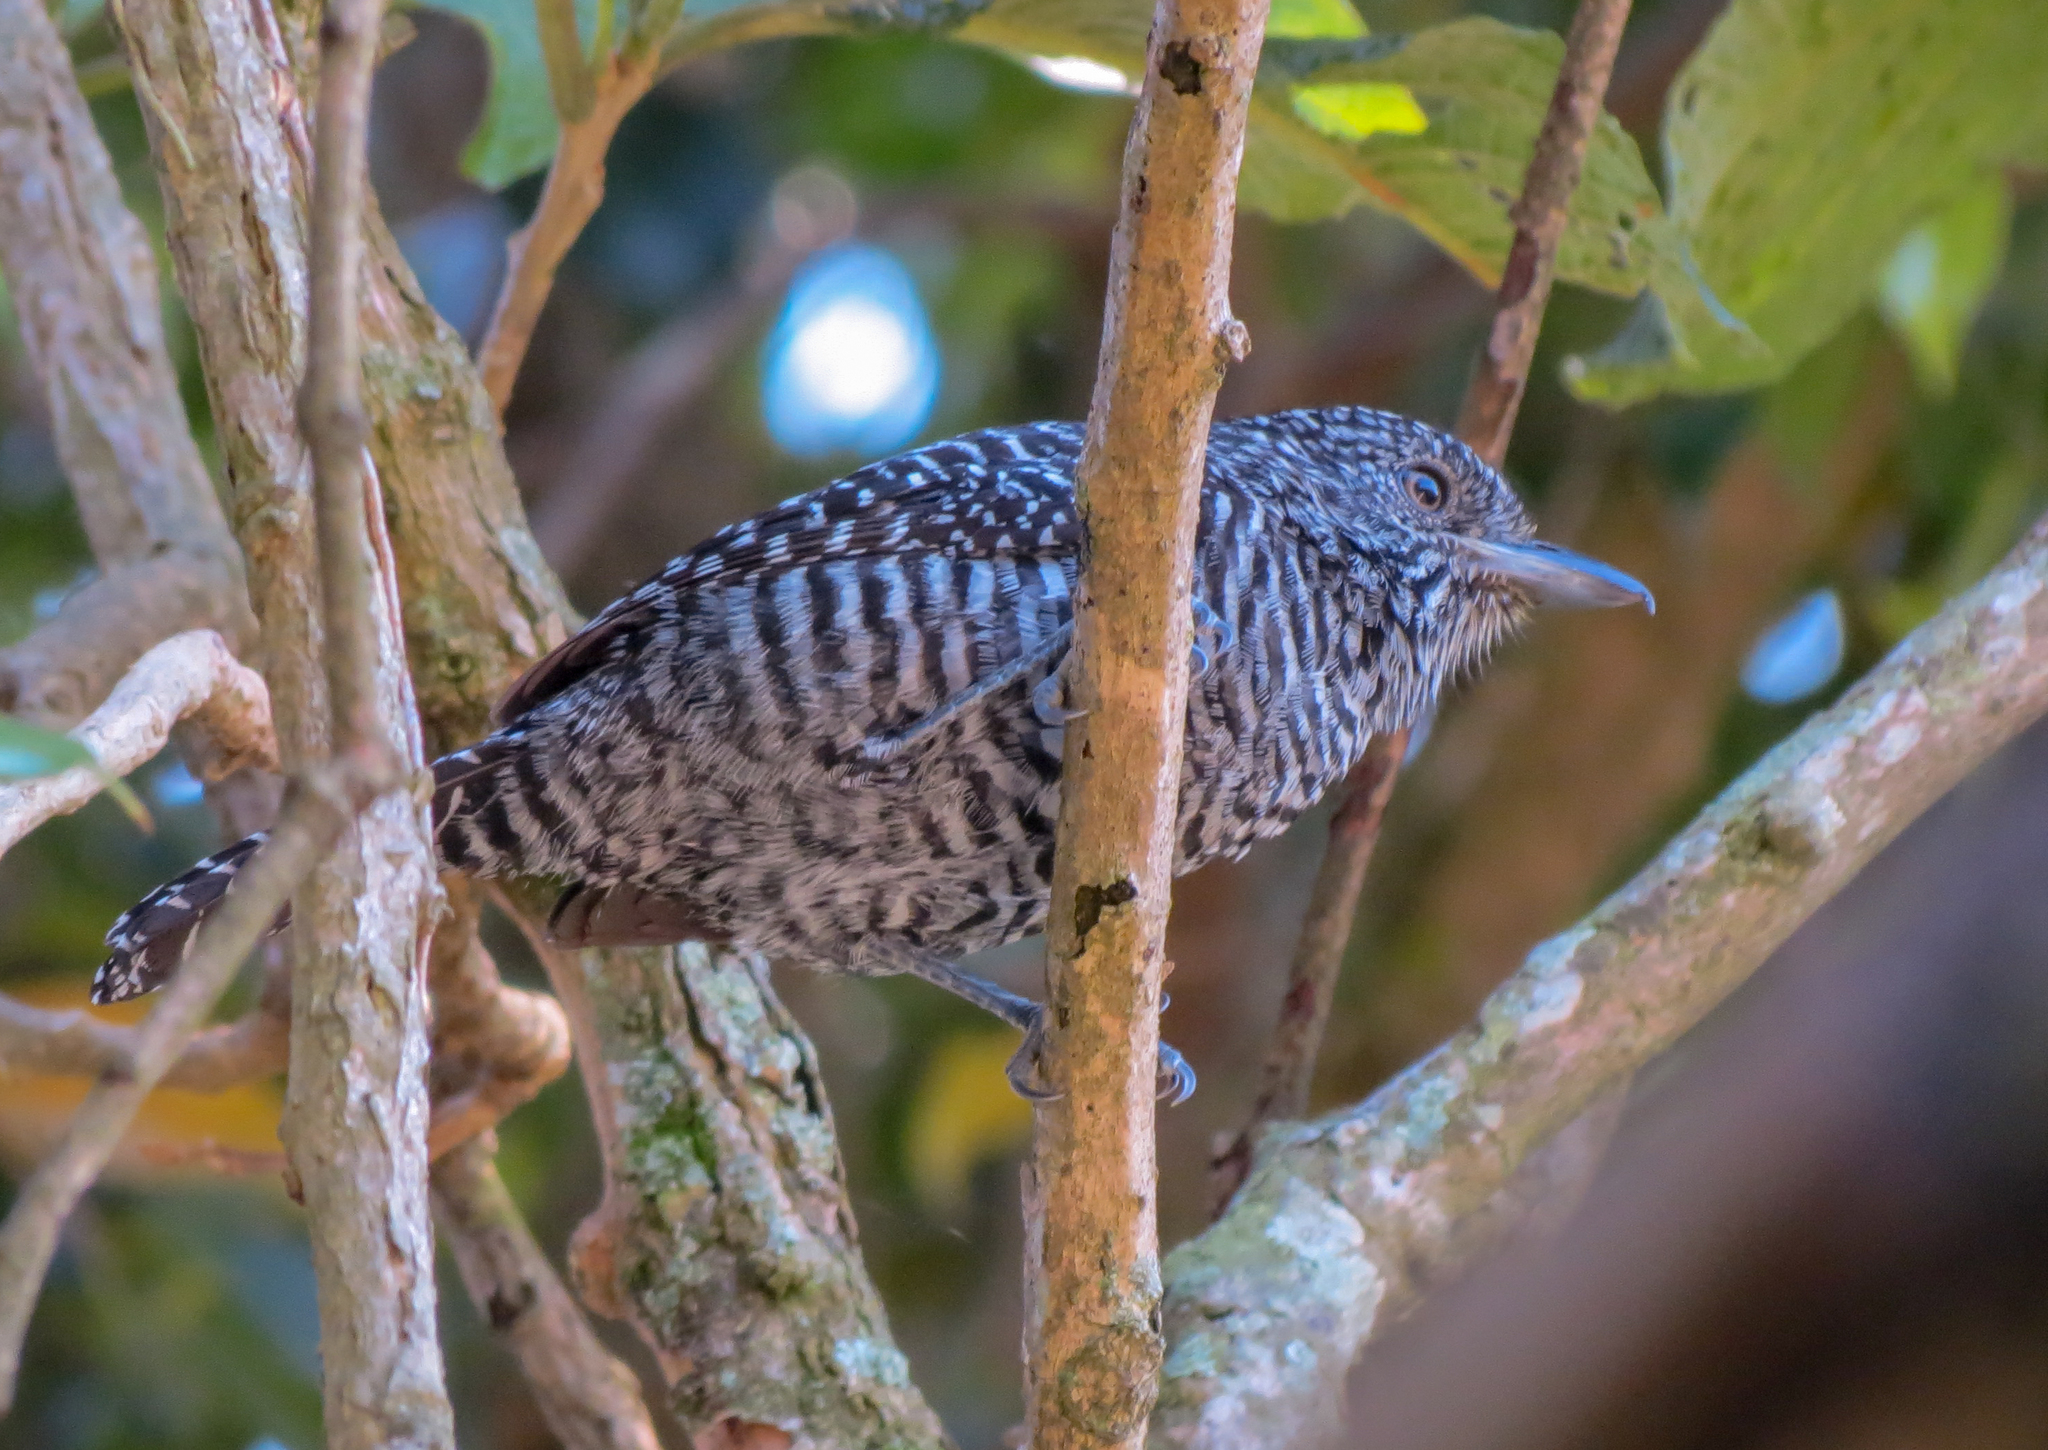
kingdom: Animalia
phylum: Chordata
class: Aves
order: Passeriformes
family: Thamnophilidae
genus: Thamnophilus
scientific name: Thamnophilus multistriatus
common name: Bar-crested antshrike
